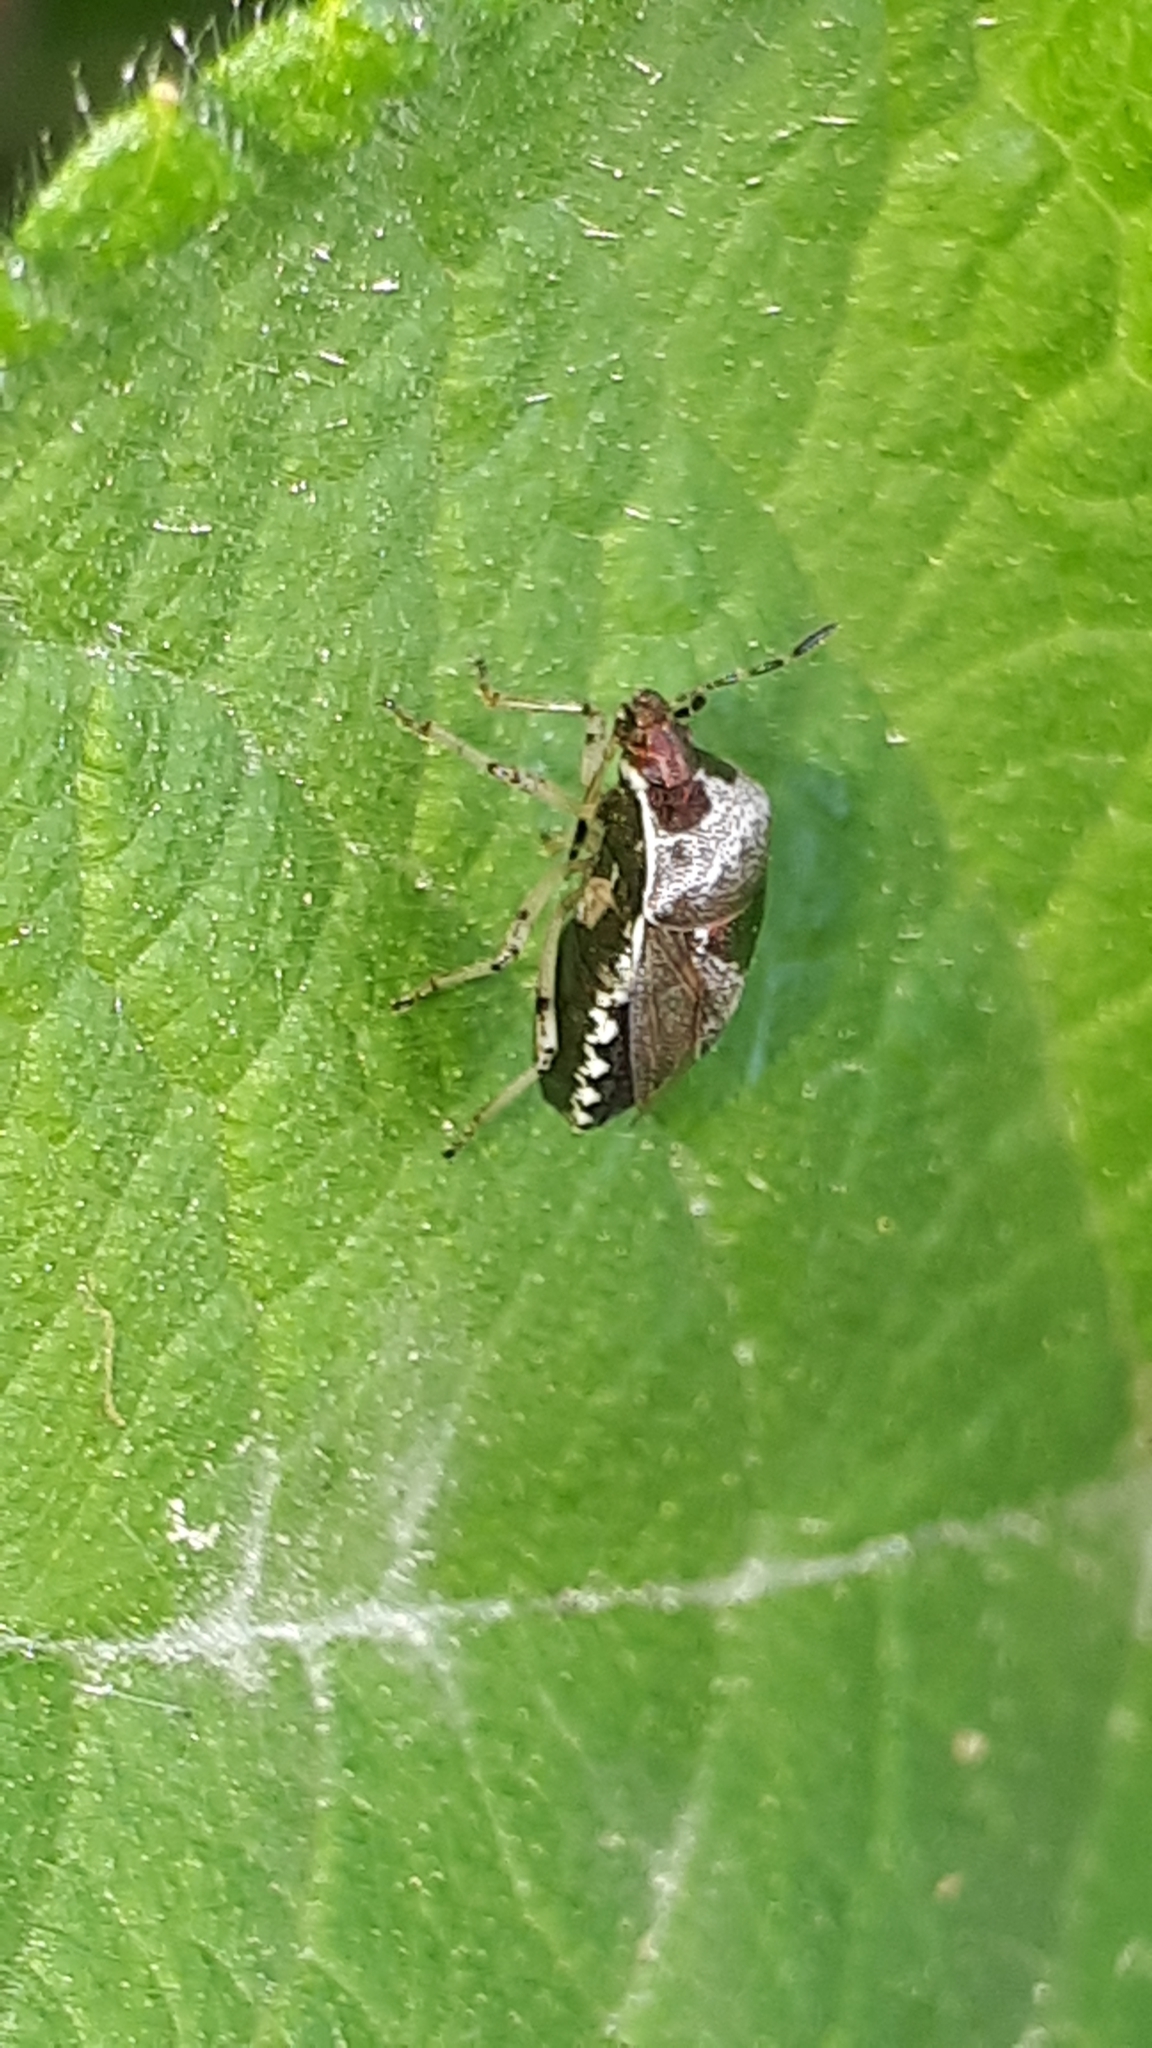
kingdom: Animalia
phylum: Arthropoda
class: Insecta
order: Hemiptera
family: Pentatomidae
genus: Eysarcoris
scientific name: Eysarcoris venustissimus
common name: Woundwort shieldbug
